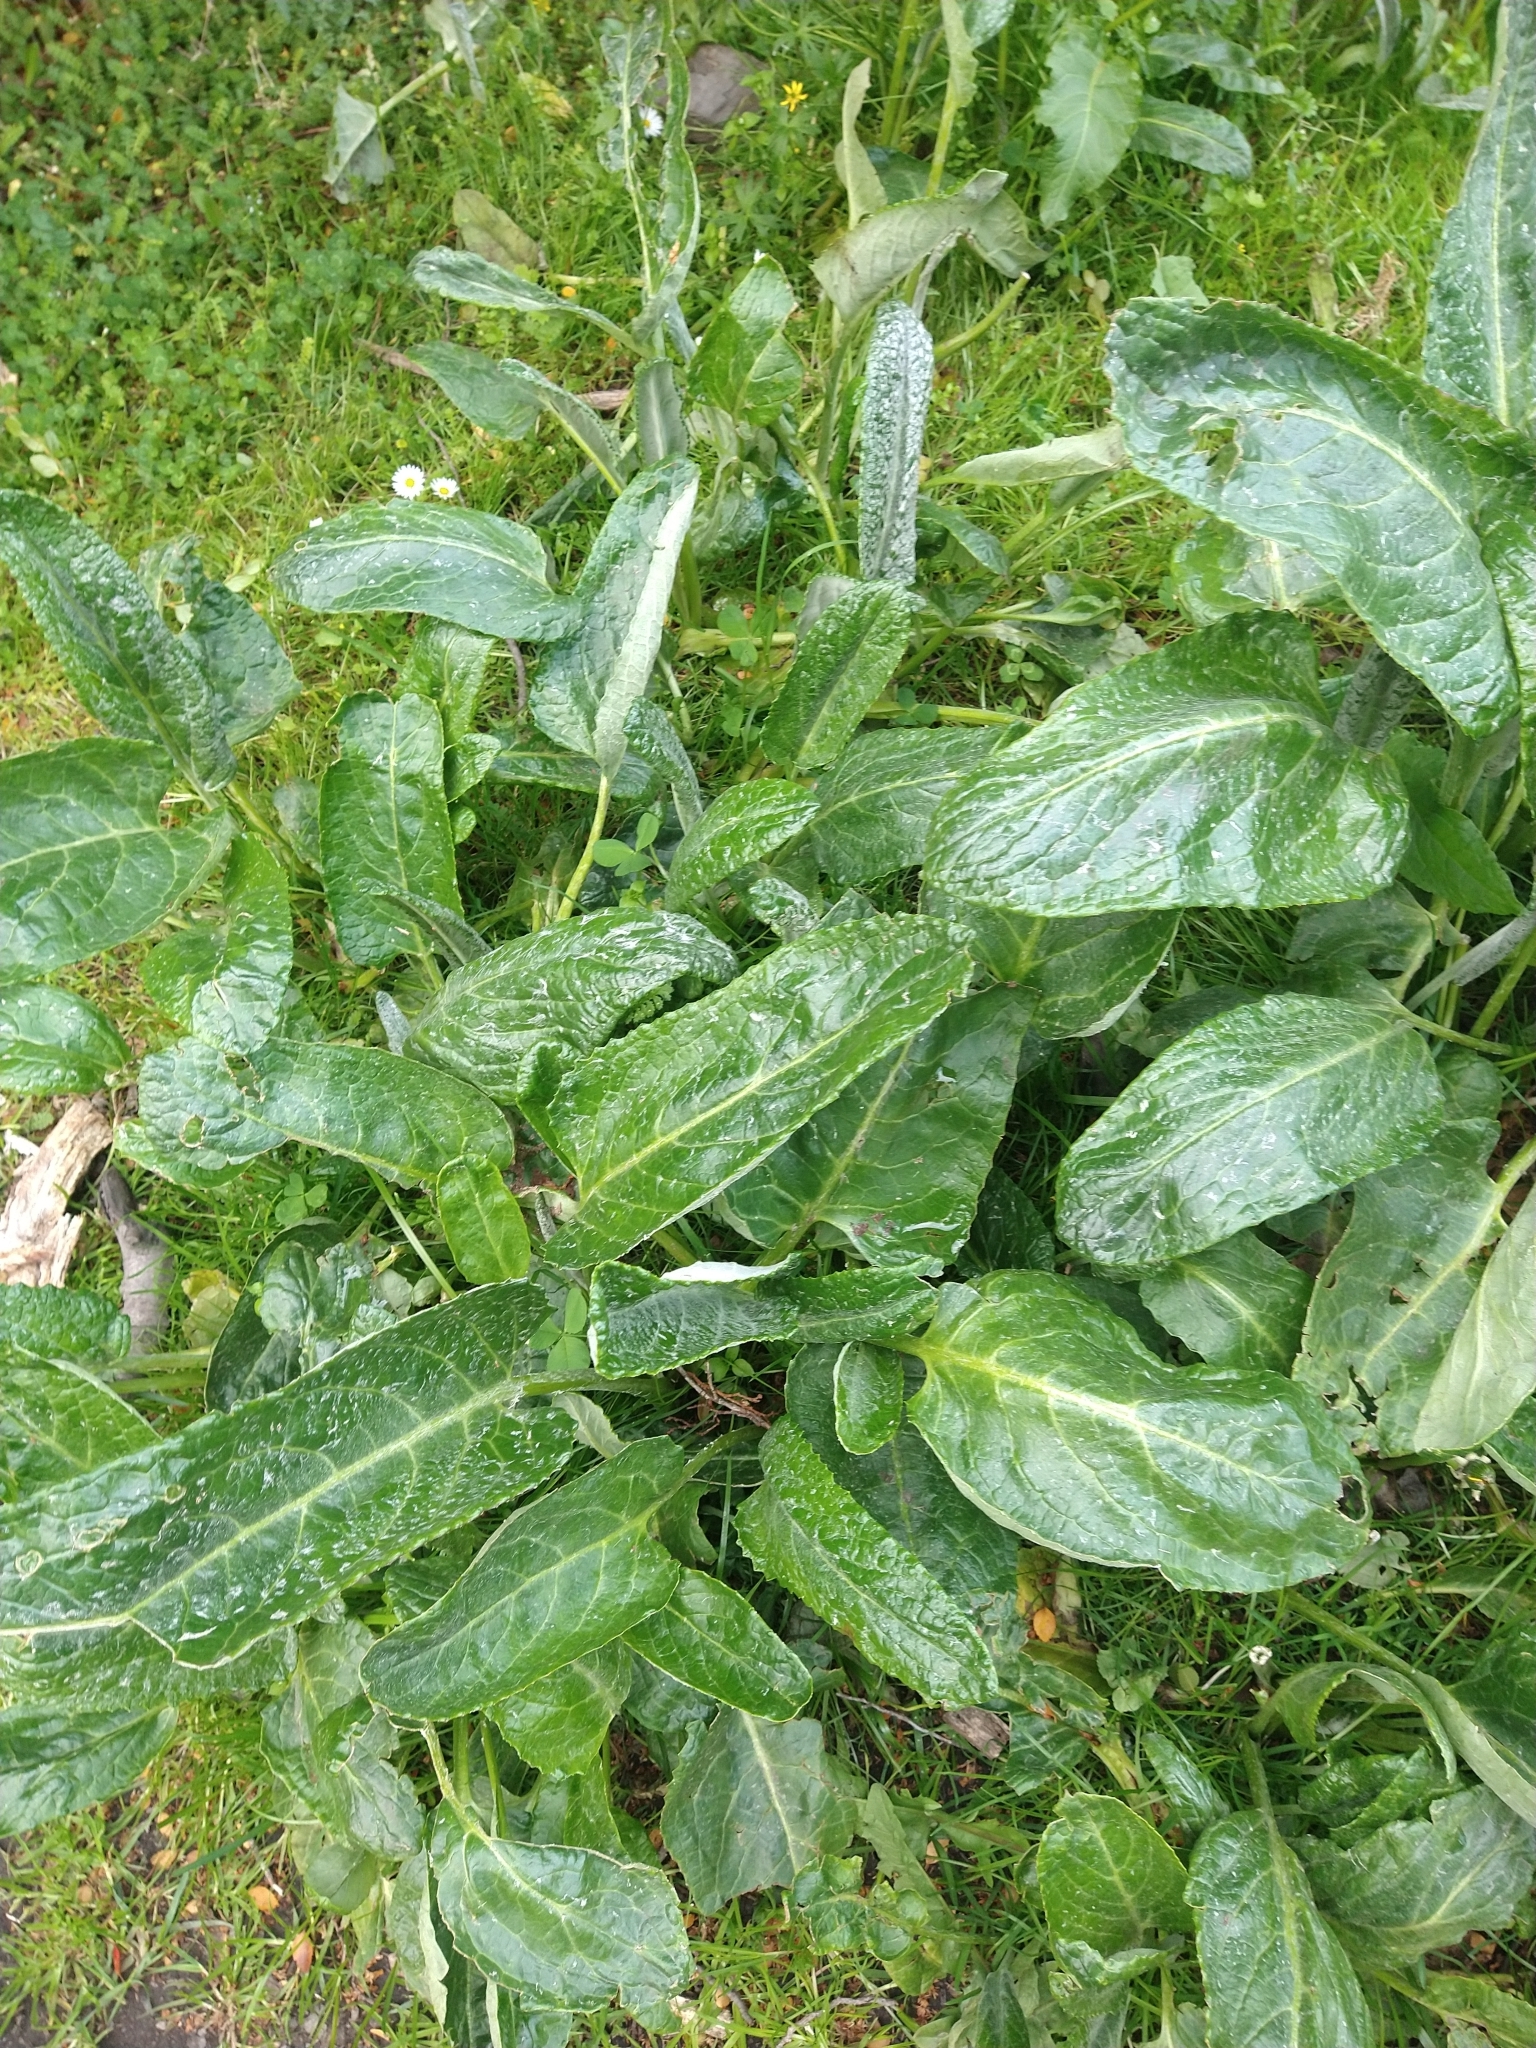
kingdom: Plantae
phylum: Tracheophyta
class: Magnoliopsida
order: Asterales
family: Asteraceae
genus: Senecio
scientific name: Senecio smithii
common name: Magellan ragwort
